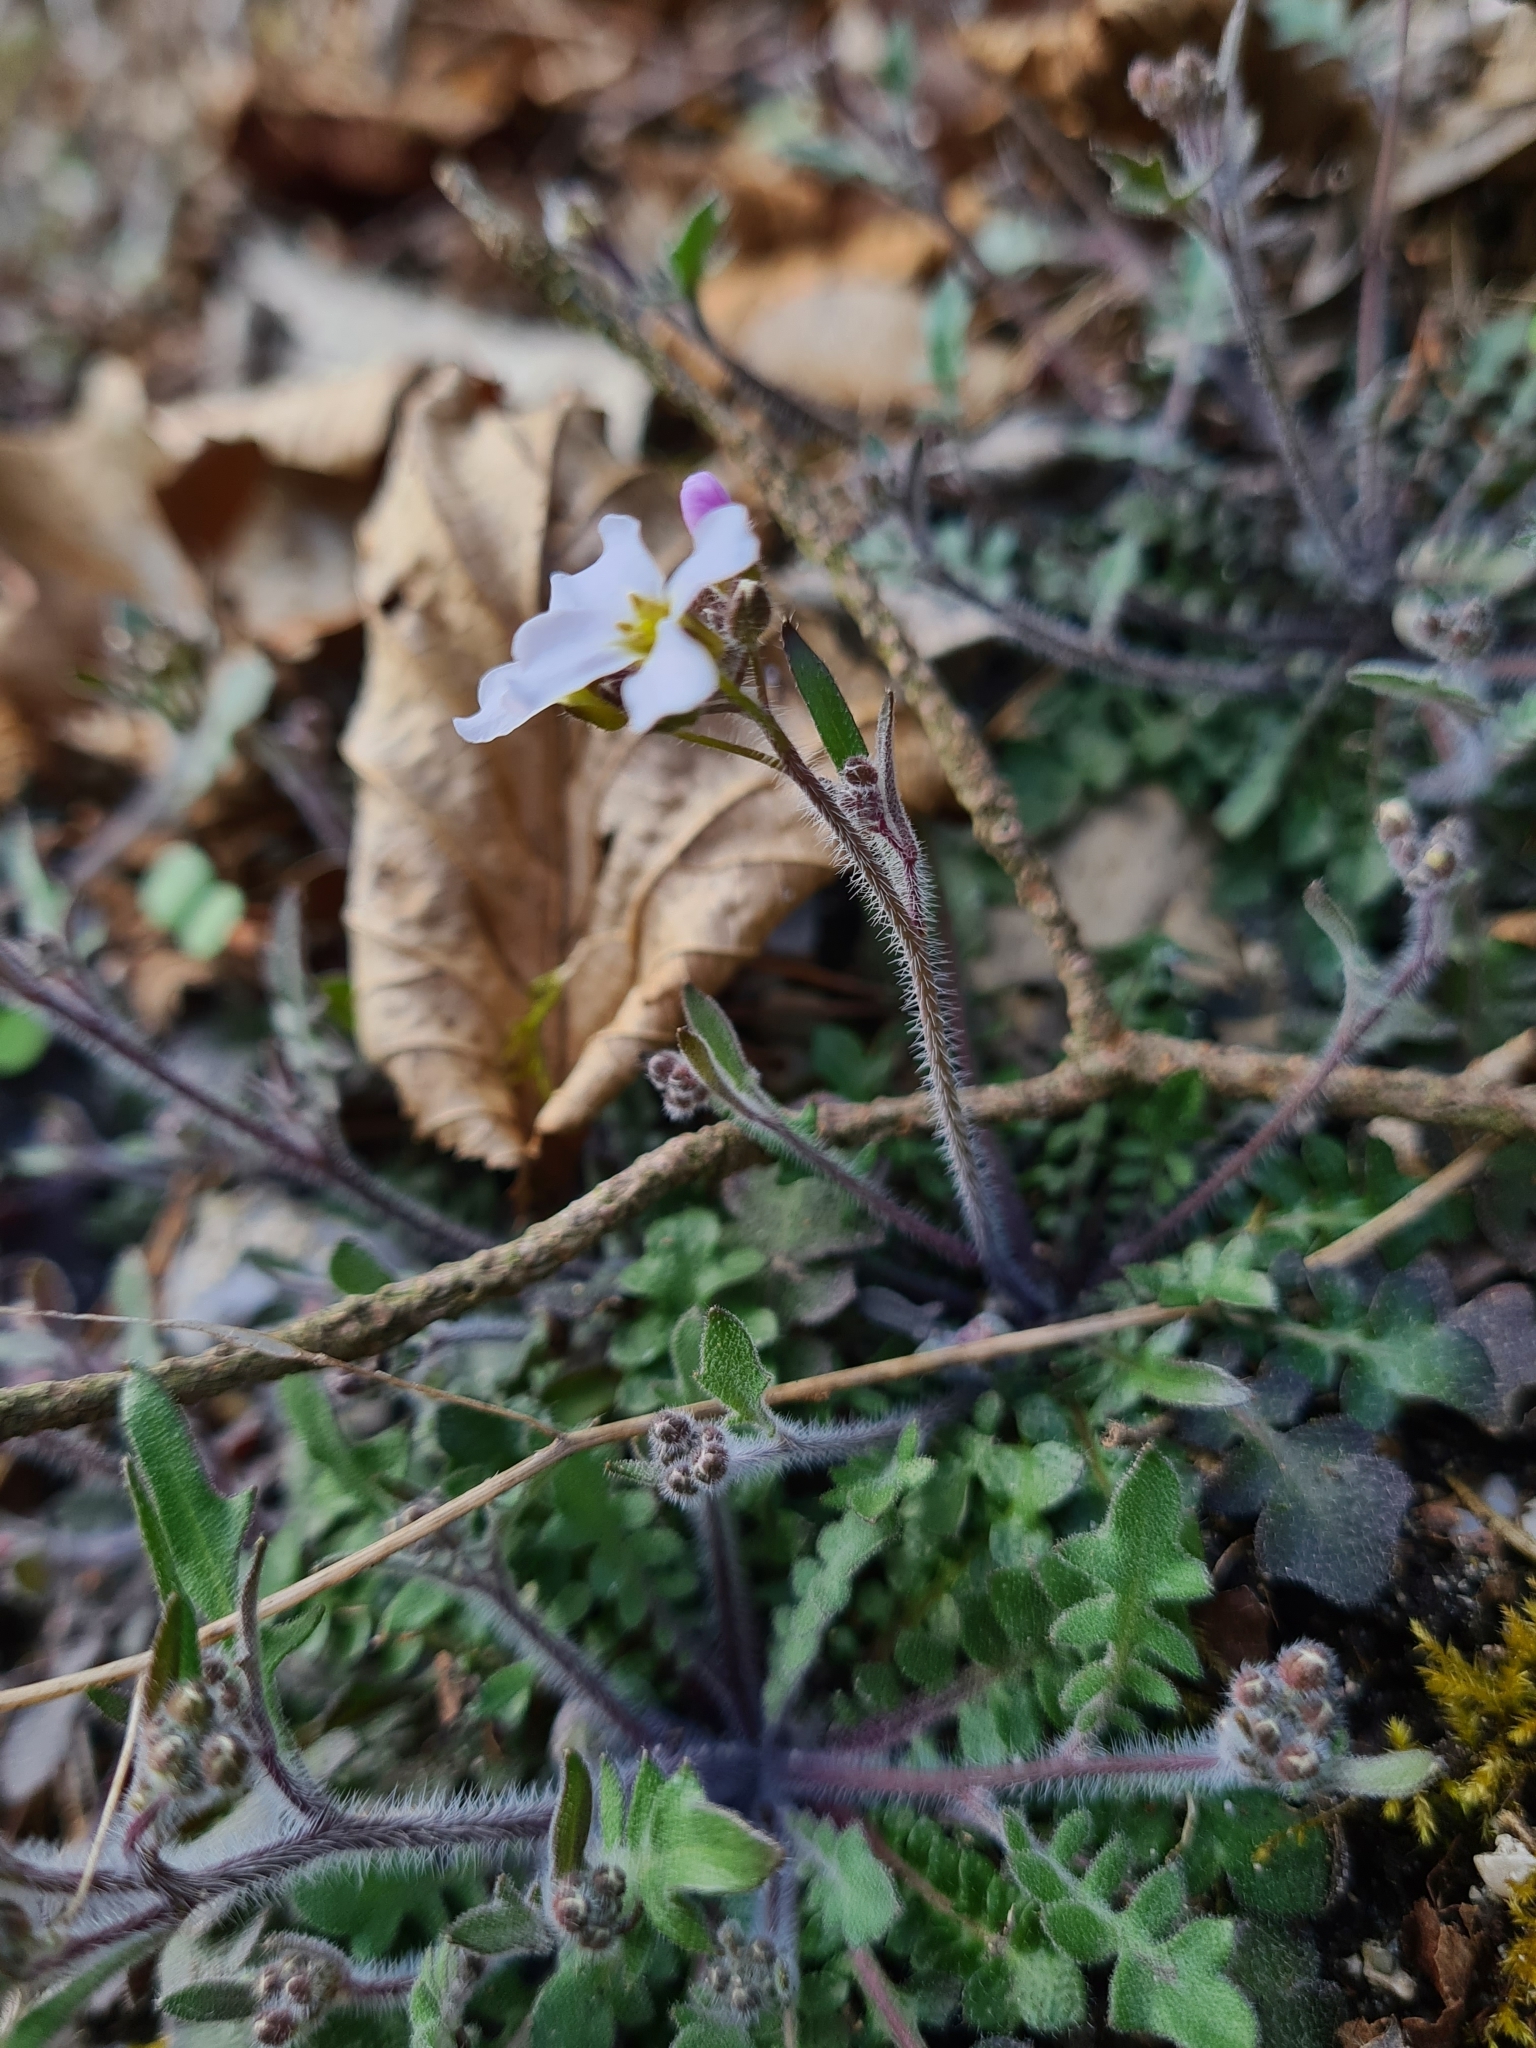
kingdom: Plantae
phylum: Tracheophyta
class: Magnoliopsida
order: Brassicales
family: Brassicaceae
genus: Arabidopsis
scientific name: Arabidopsis arenosa
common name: Sand rock-cress
